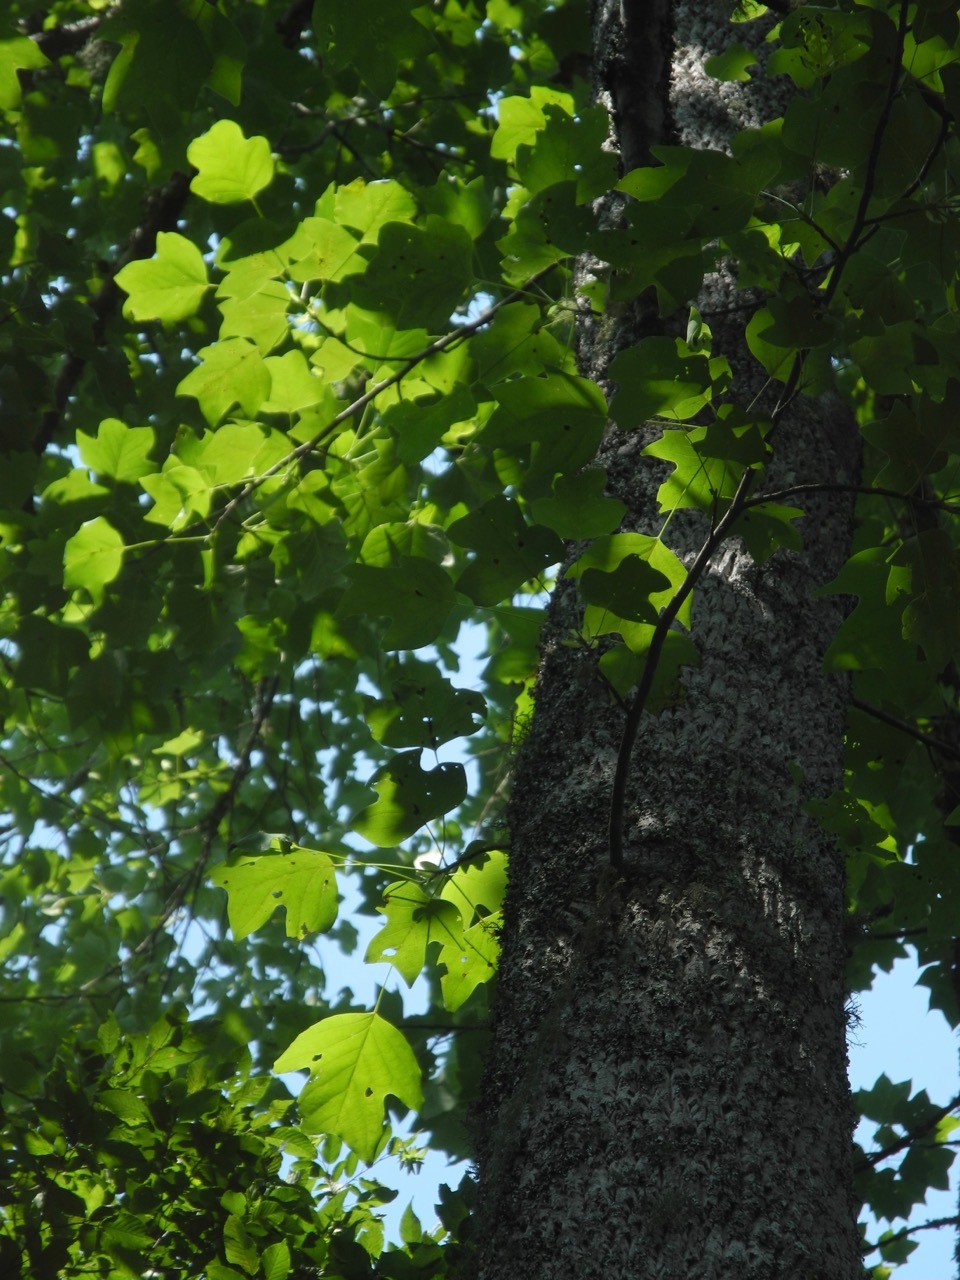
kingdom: Plantae
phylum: Tracheophyta
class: Magnoliopsida
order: Magnoliales
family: Magnoliaceae
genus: Liriodendron
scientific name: Liriodendron tulipifera
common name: Tulip tree
